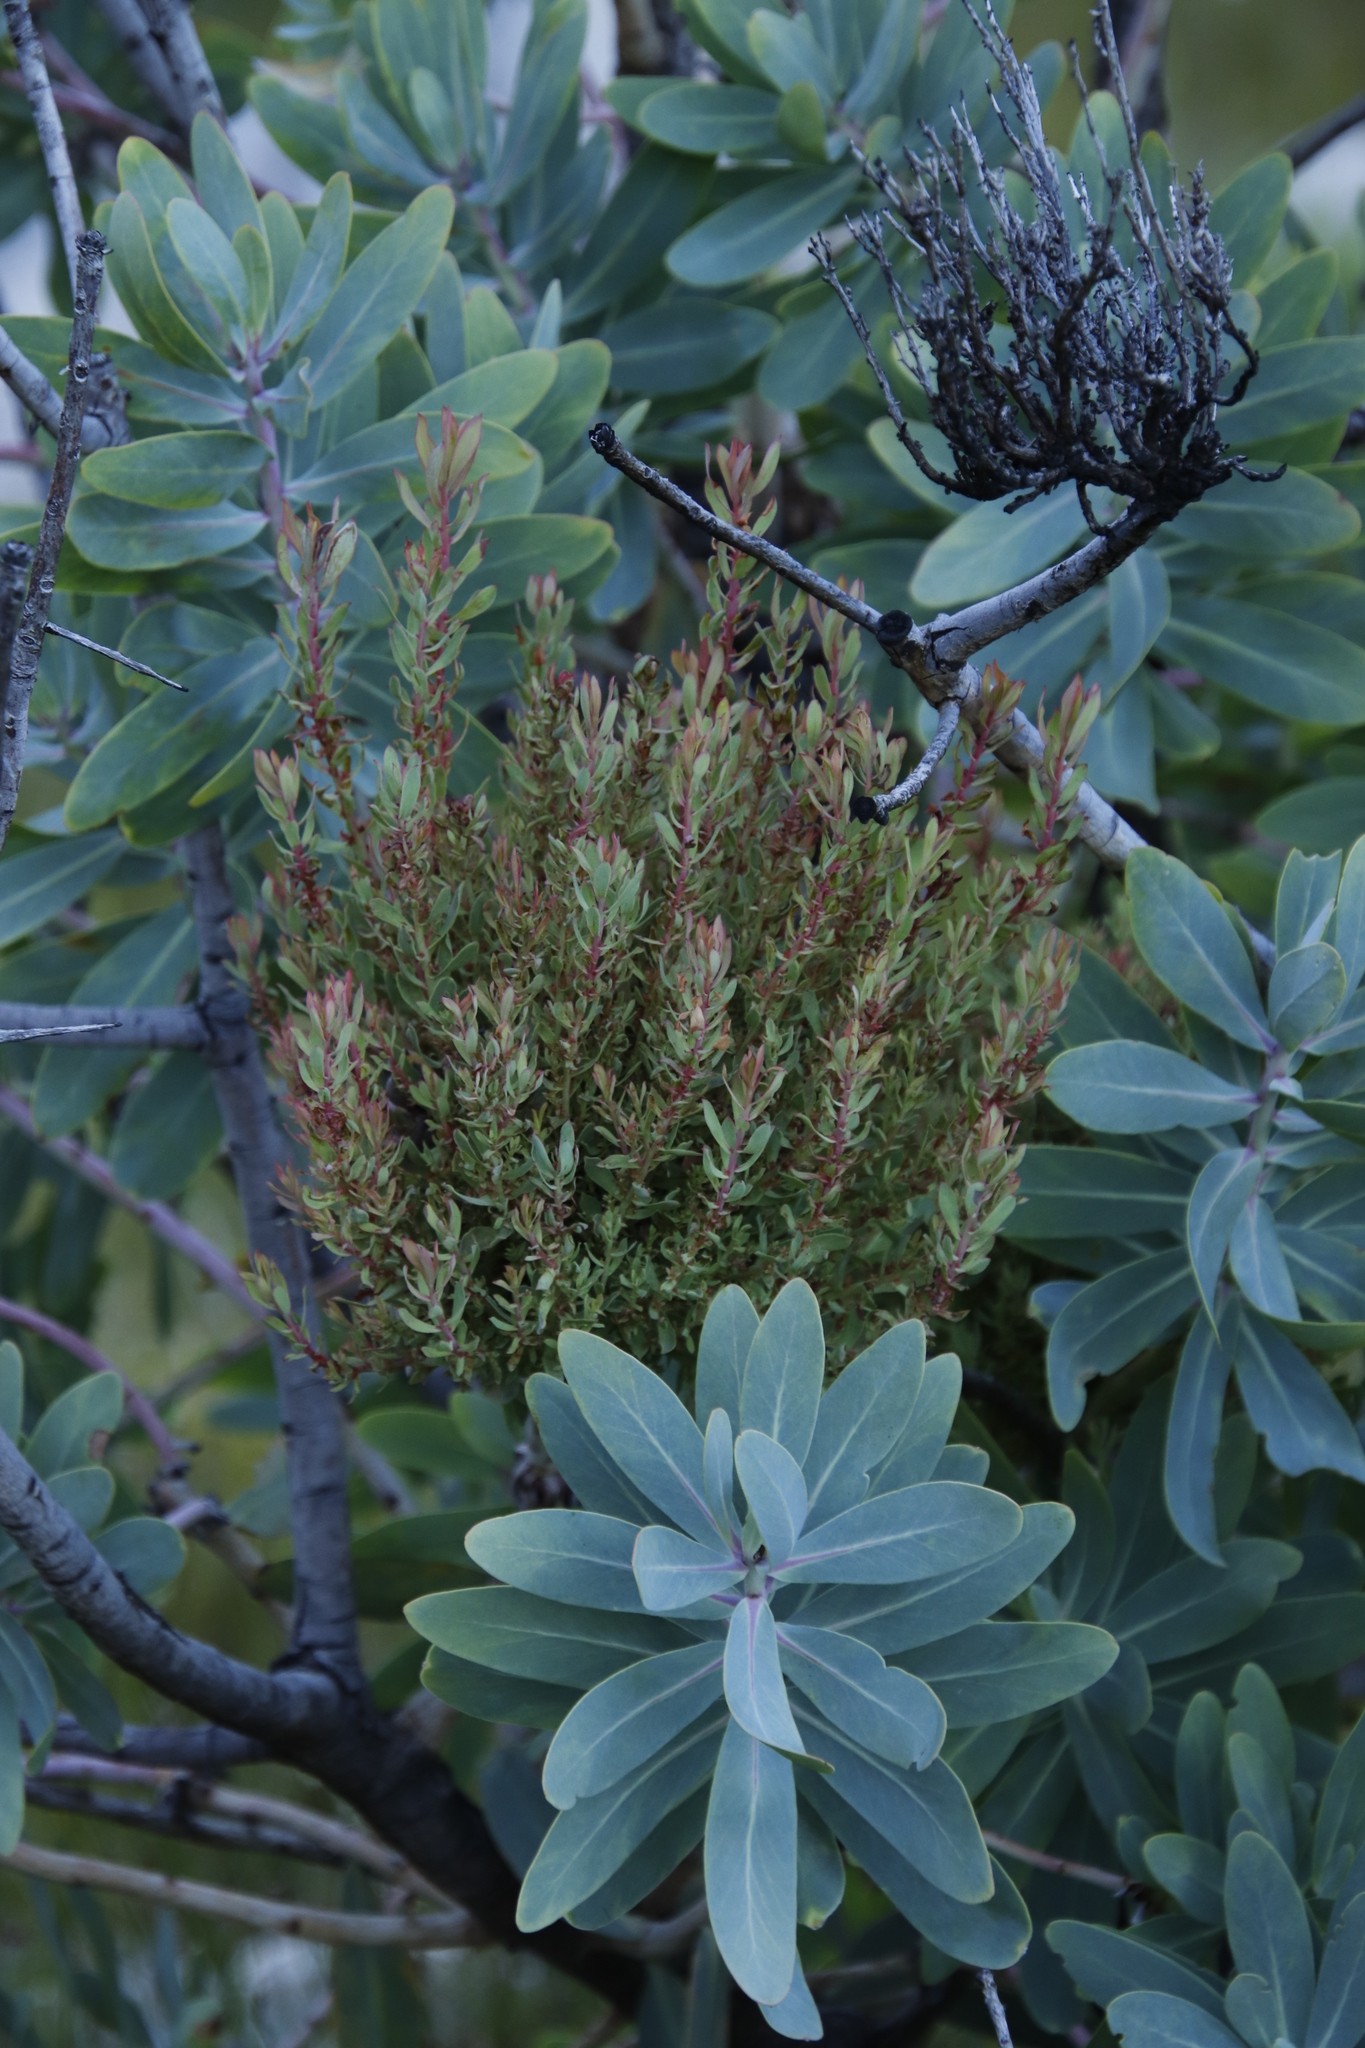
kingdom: Bacteria
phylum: Firmicutes
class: Bacilli
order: Acholeplasmatales
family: Acholeplasmataceae
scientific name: Acholeplasmataceae
